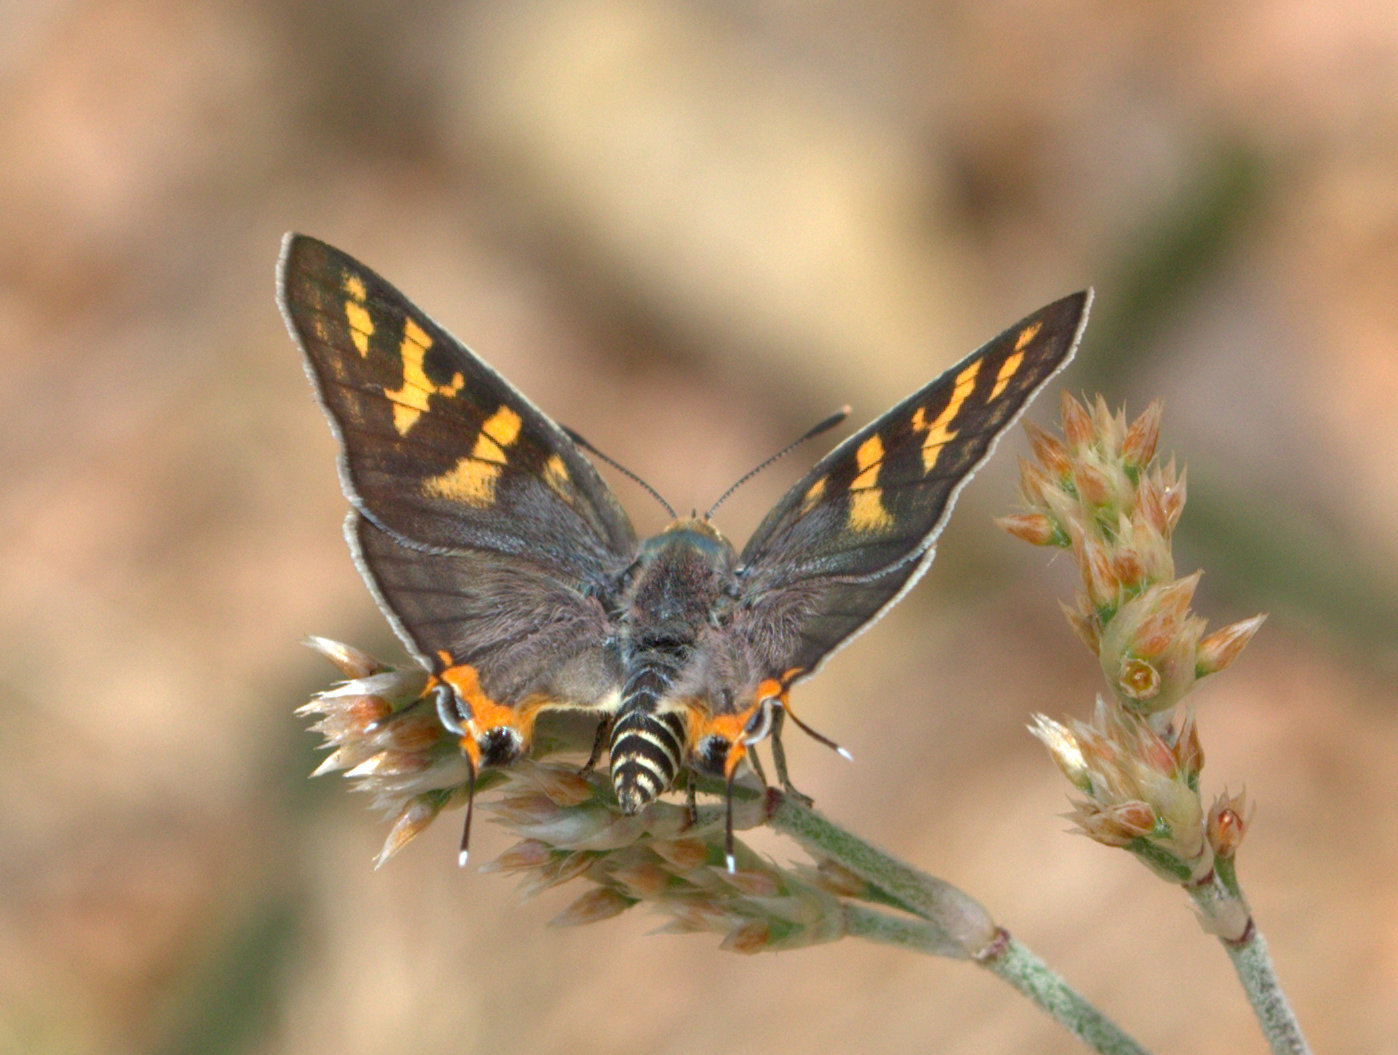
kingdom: Animalia
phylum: Arthropoda
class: Insecta
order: Lepidoptera
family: Lycaenidae
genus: Cigaritis
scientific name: Cigaritis vulcanus
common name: Common silverline
